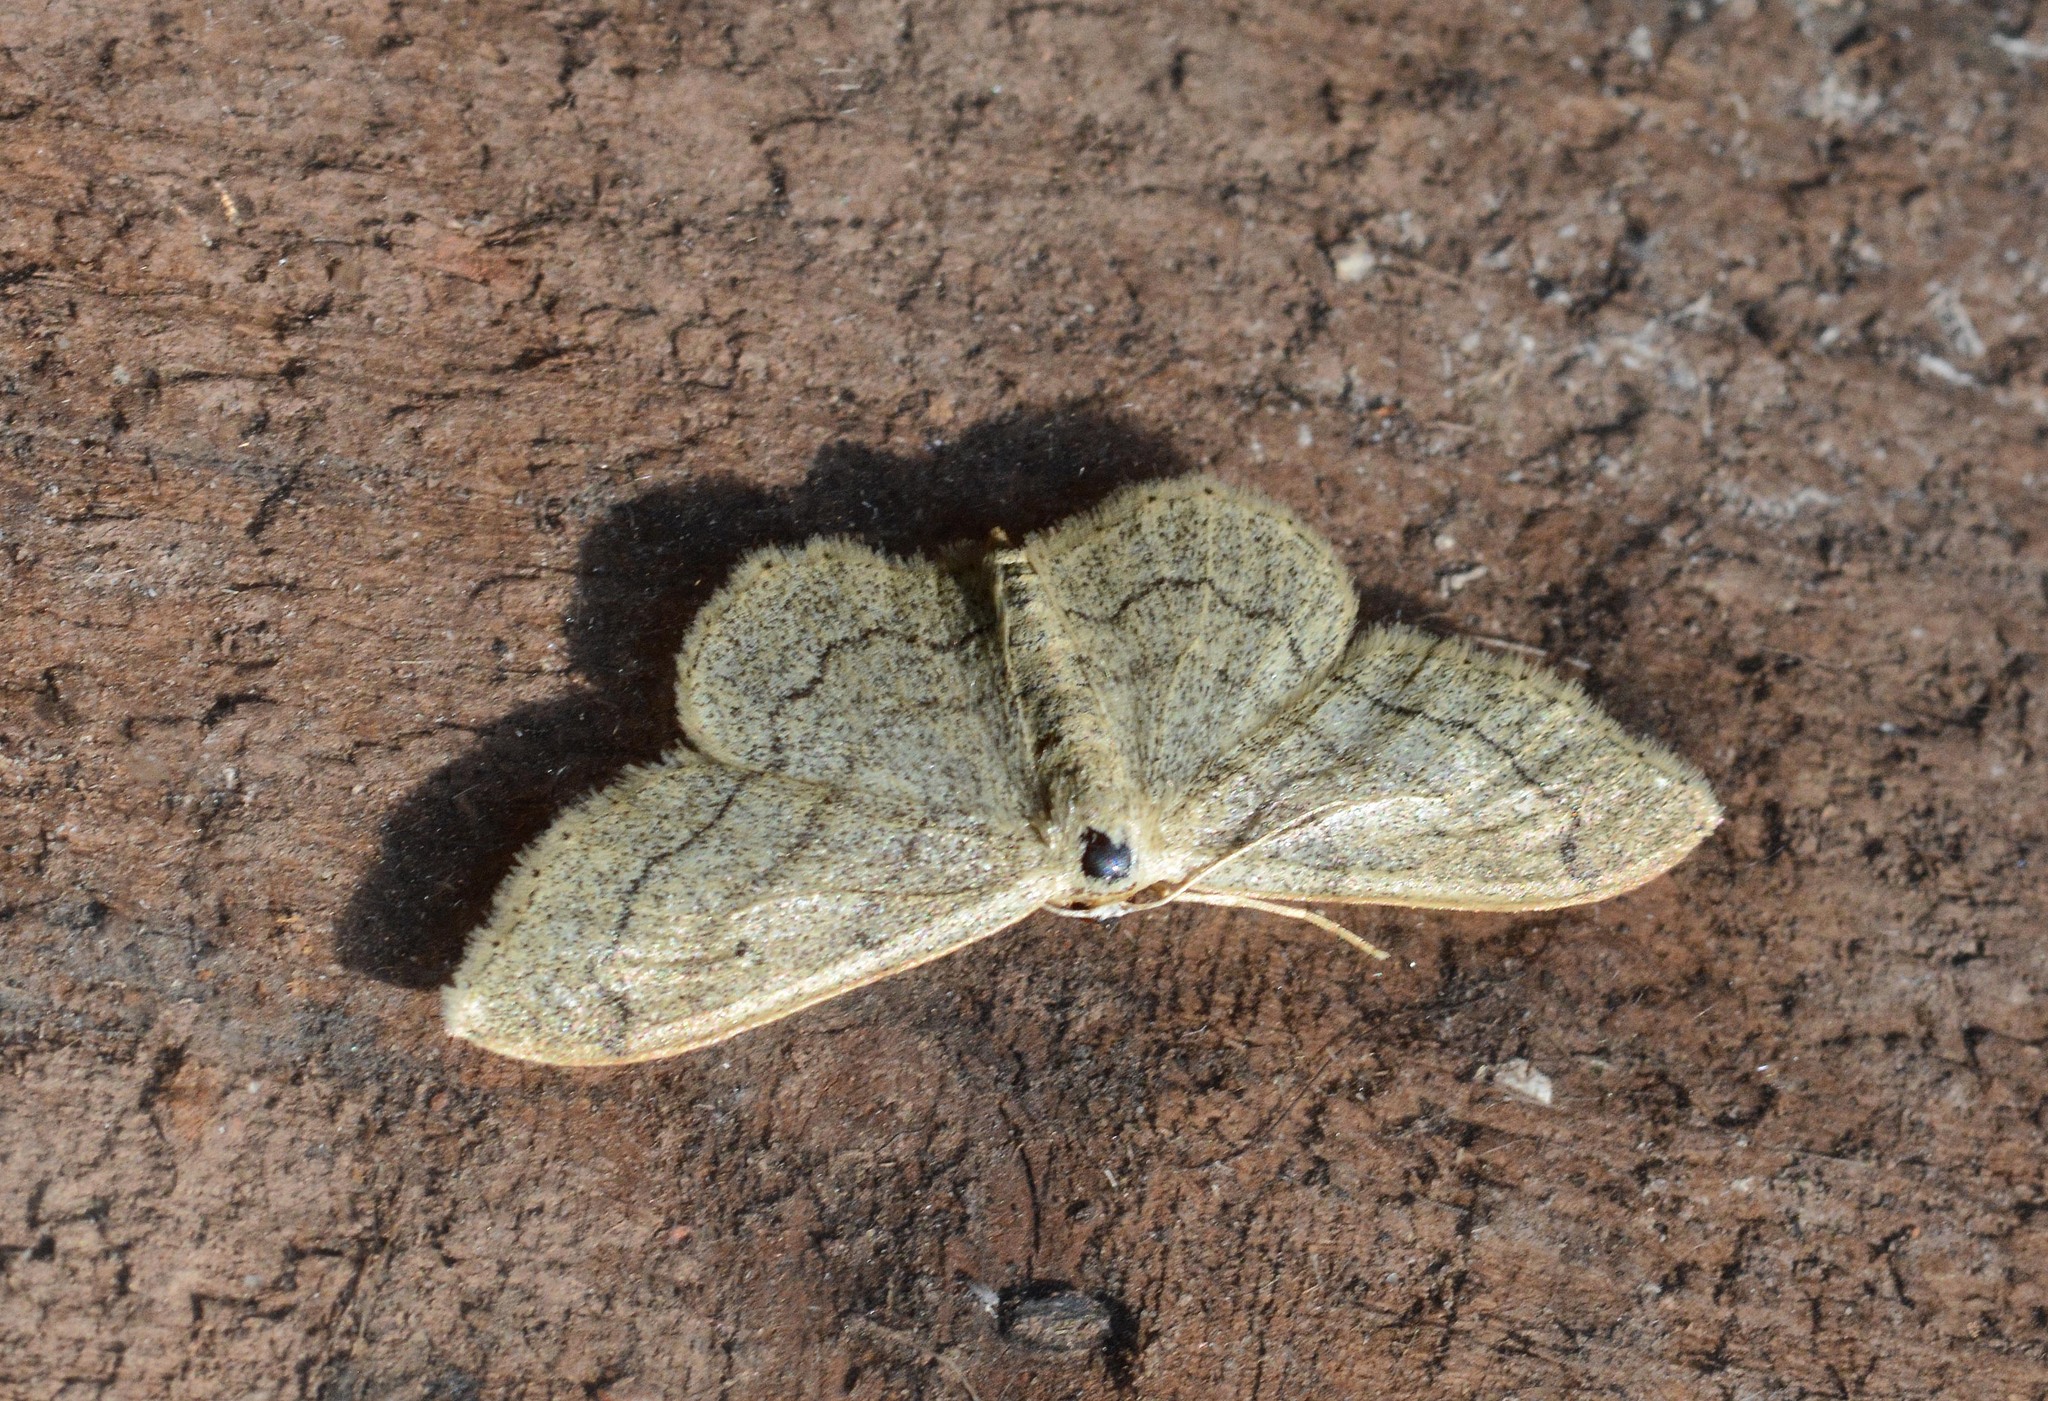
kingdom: Animalia
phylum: Arthropoda
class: Insecta
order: Lepidoptera
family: Geometridae
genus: Idaea
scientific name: Idaea aversata
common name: Riband wave
